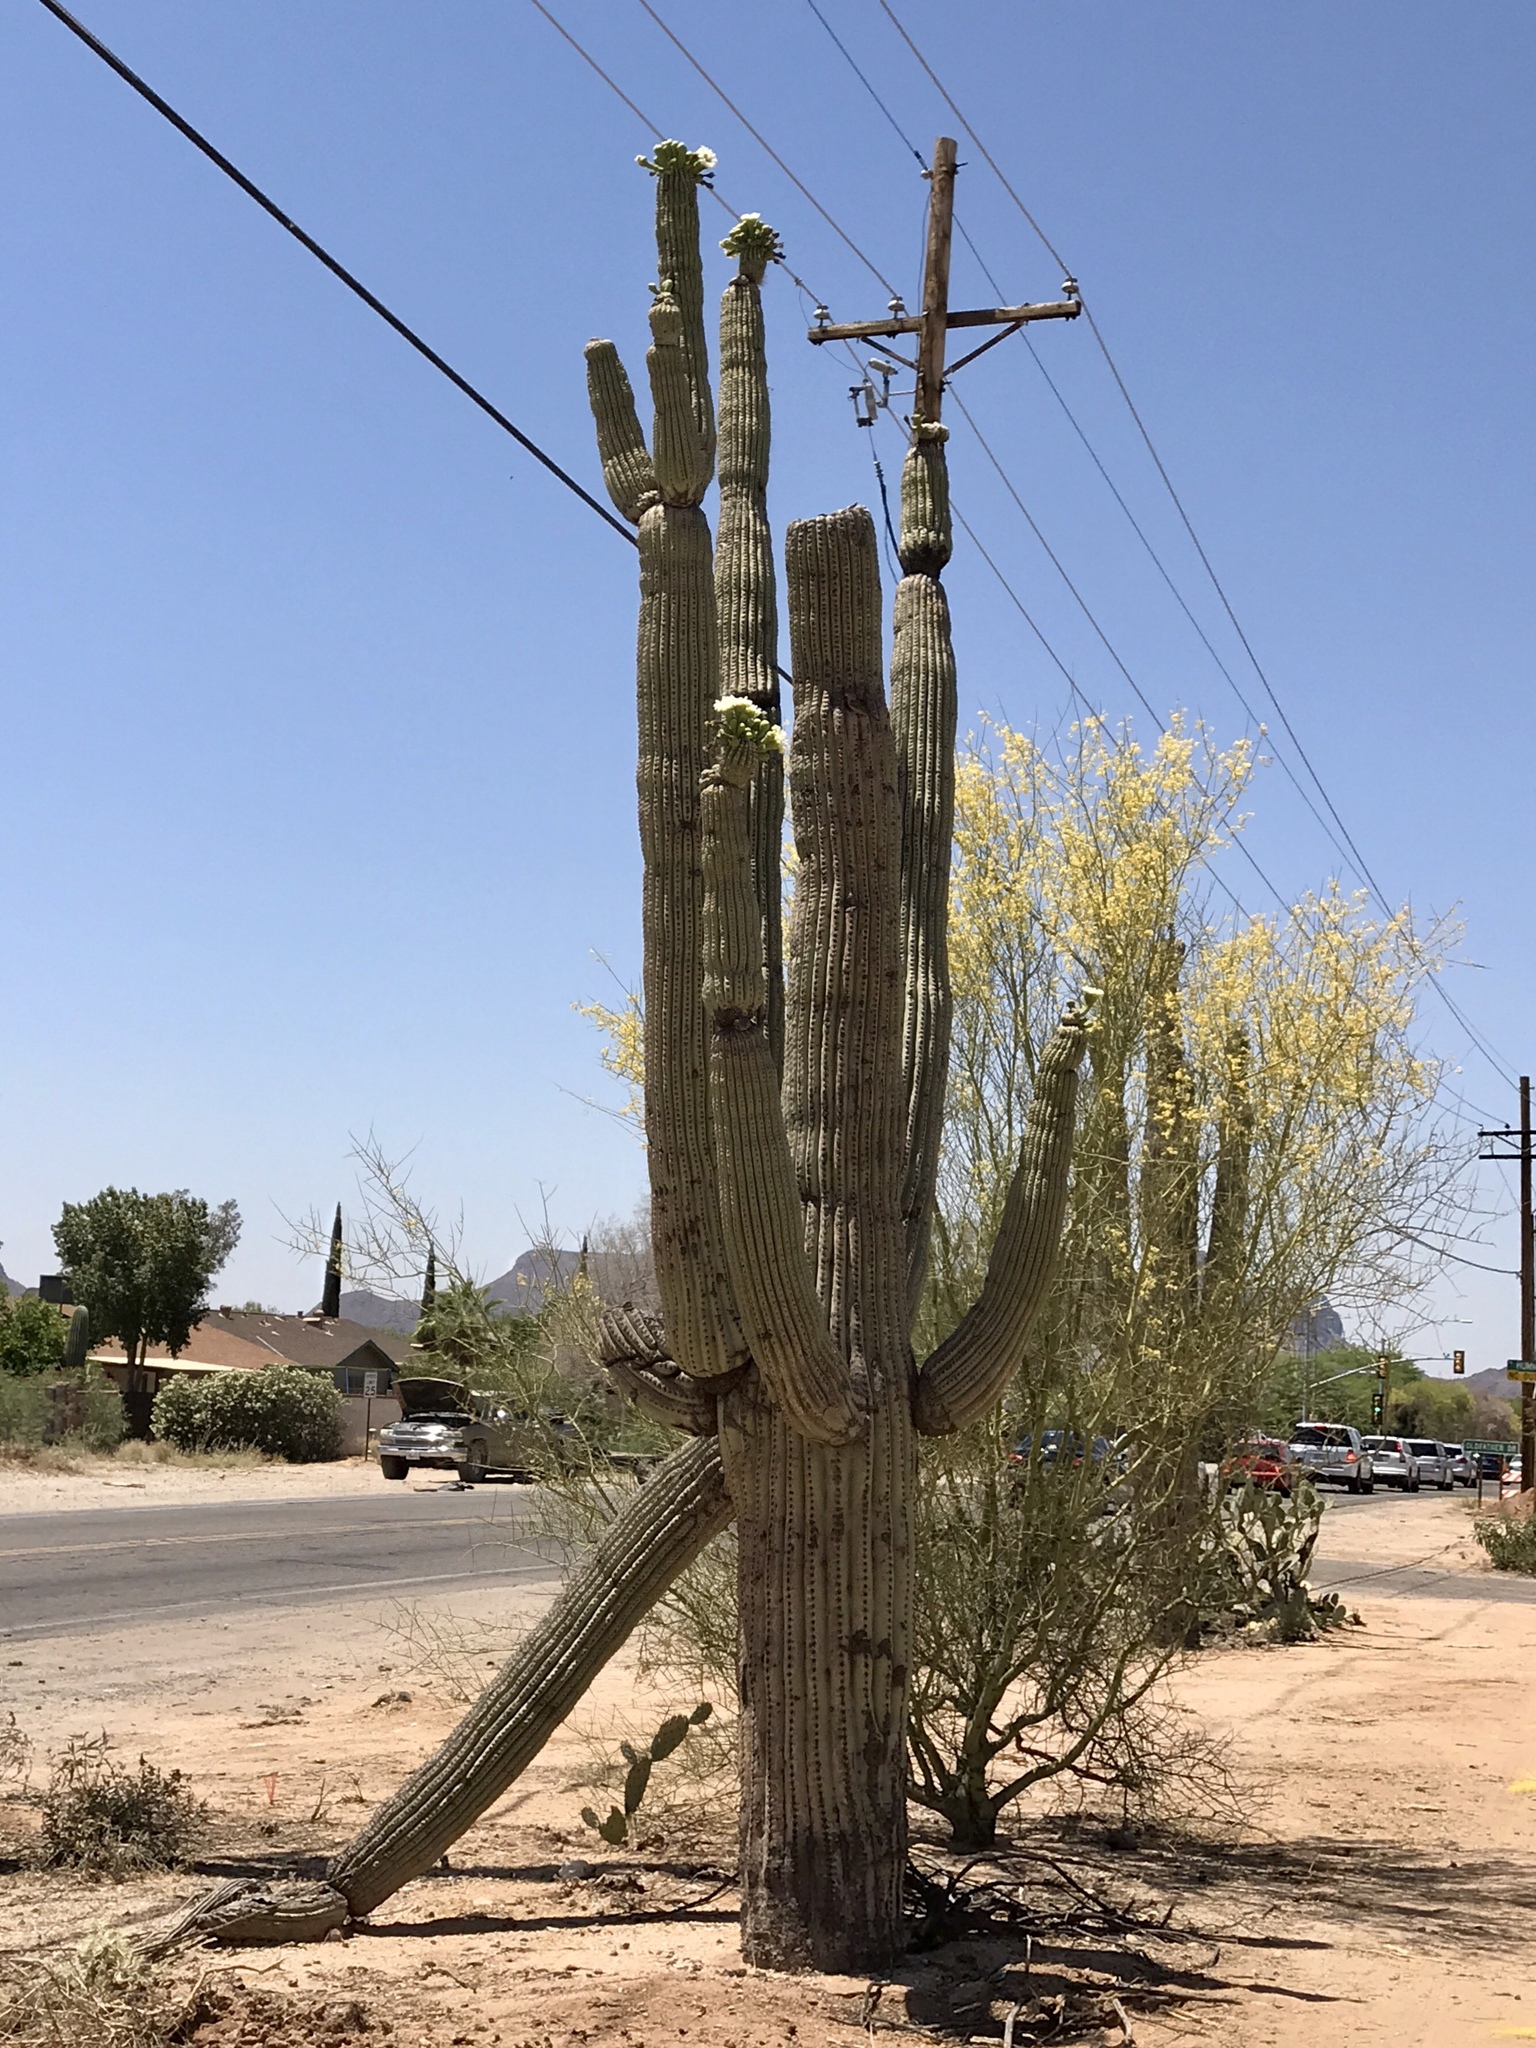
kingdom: Plantae
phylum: Tracheophyta
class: Magnoliopsida
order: Caryophyllales
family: Cactaceae
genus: Carnegiea
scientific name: Carnegiea gigantea
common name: Saguaro
